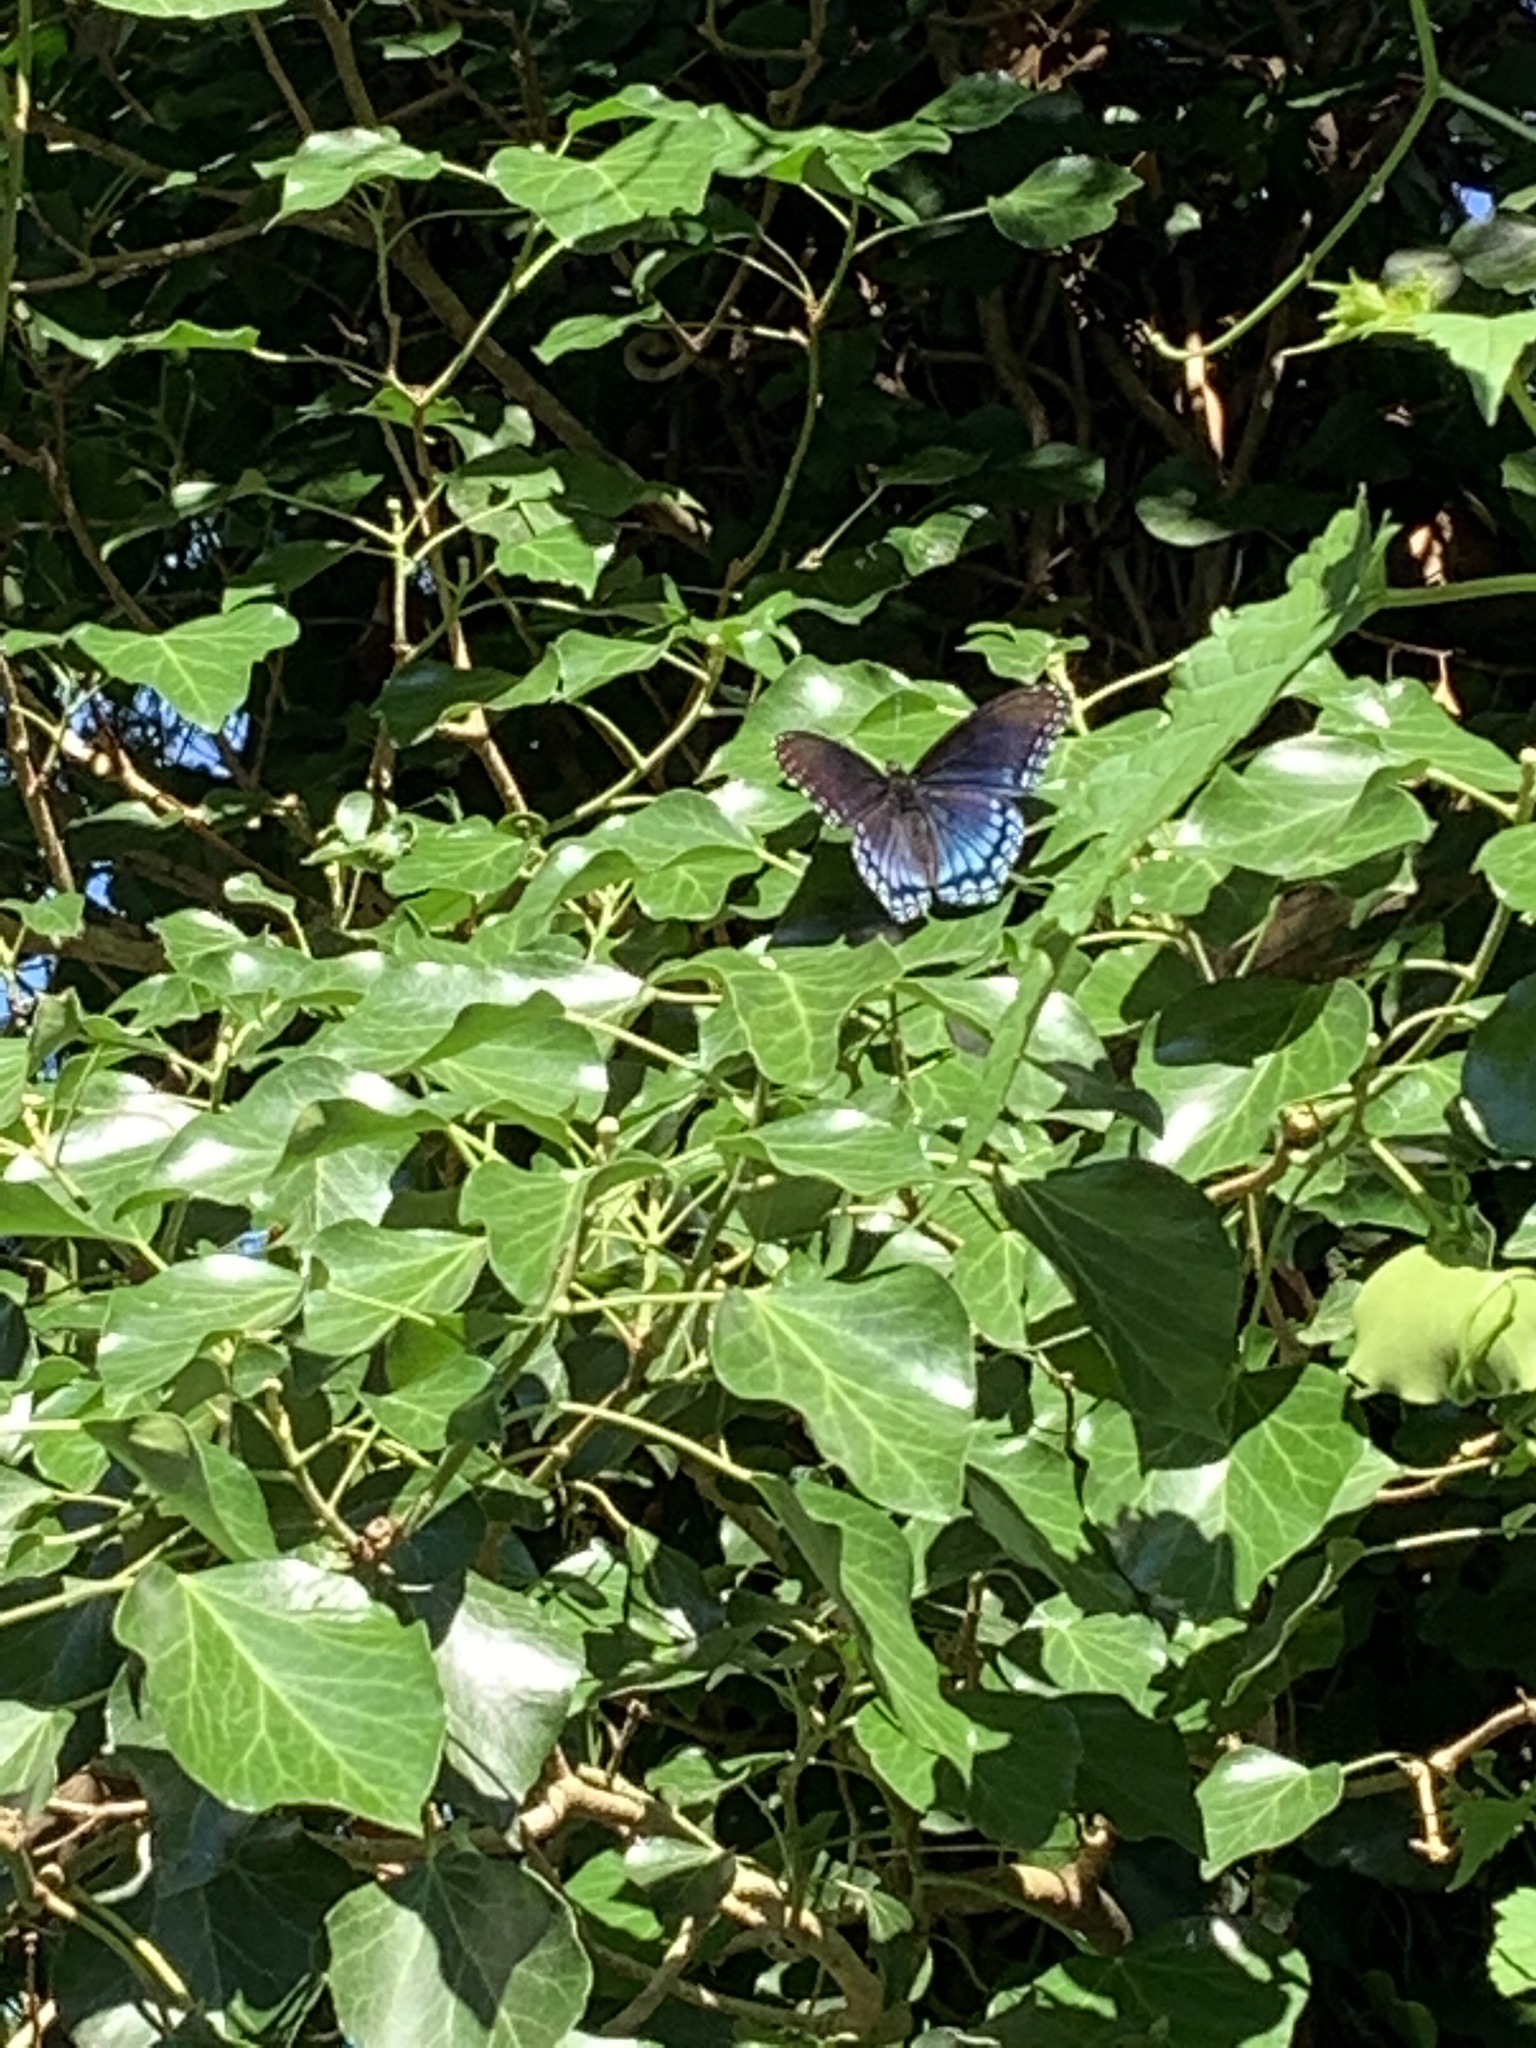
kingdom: Animalia
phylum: Arthropoda
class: Insecta
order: Lepidoptera
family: Nymphalidae
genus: Limenitis
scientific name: Limenitis astyanax
